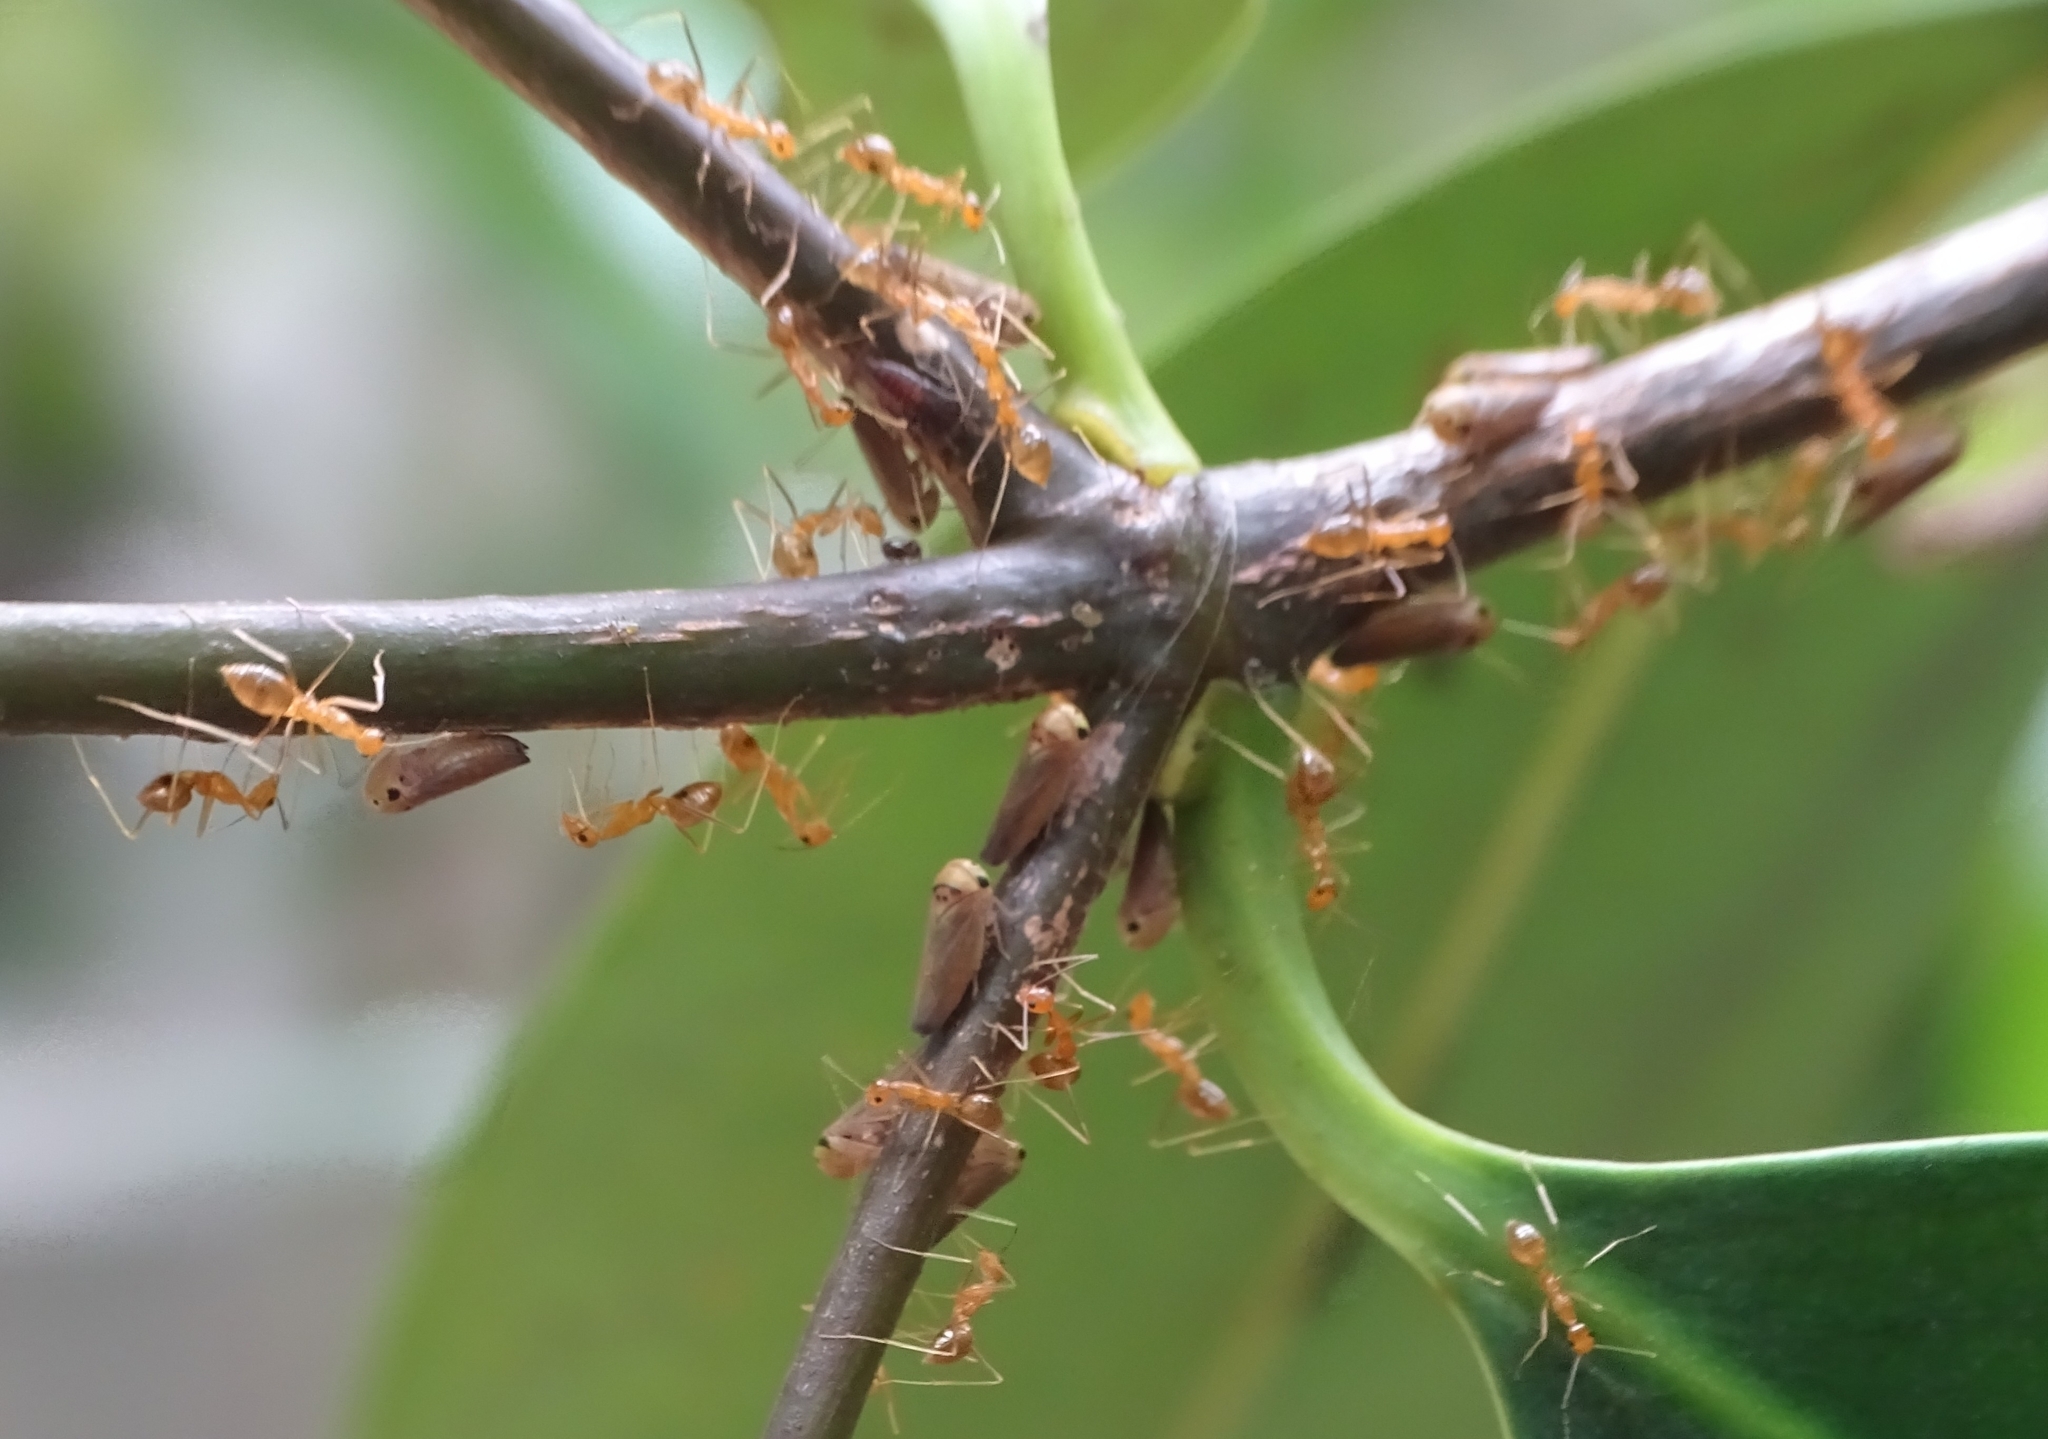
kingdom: Animalia
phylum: Arthropoda
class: Insecta
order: Hymenoptera
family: Formicidae
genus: Anoplolepis
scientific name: Anoplolepis gracilipes
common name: Ant
